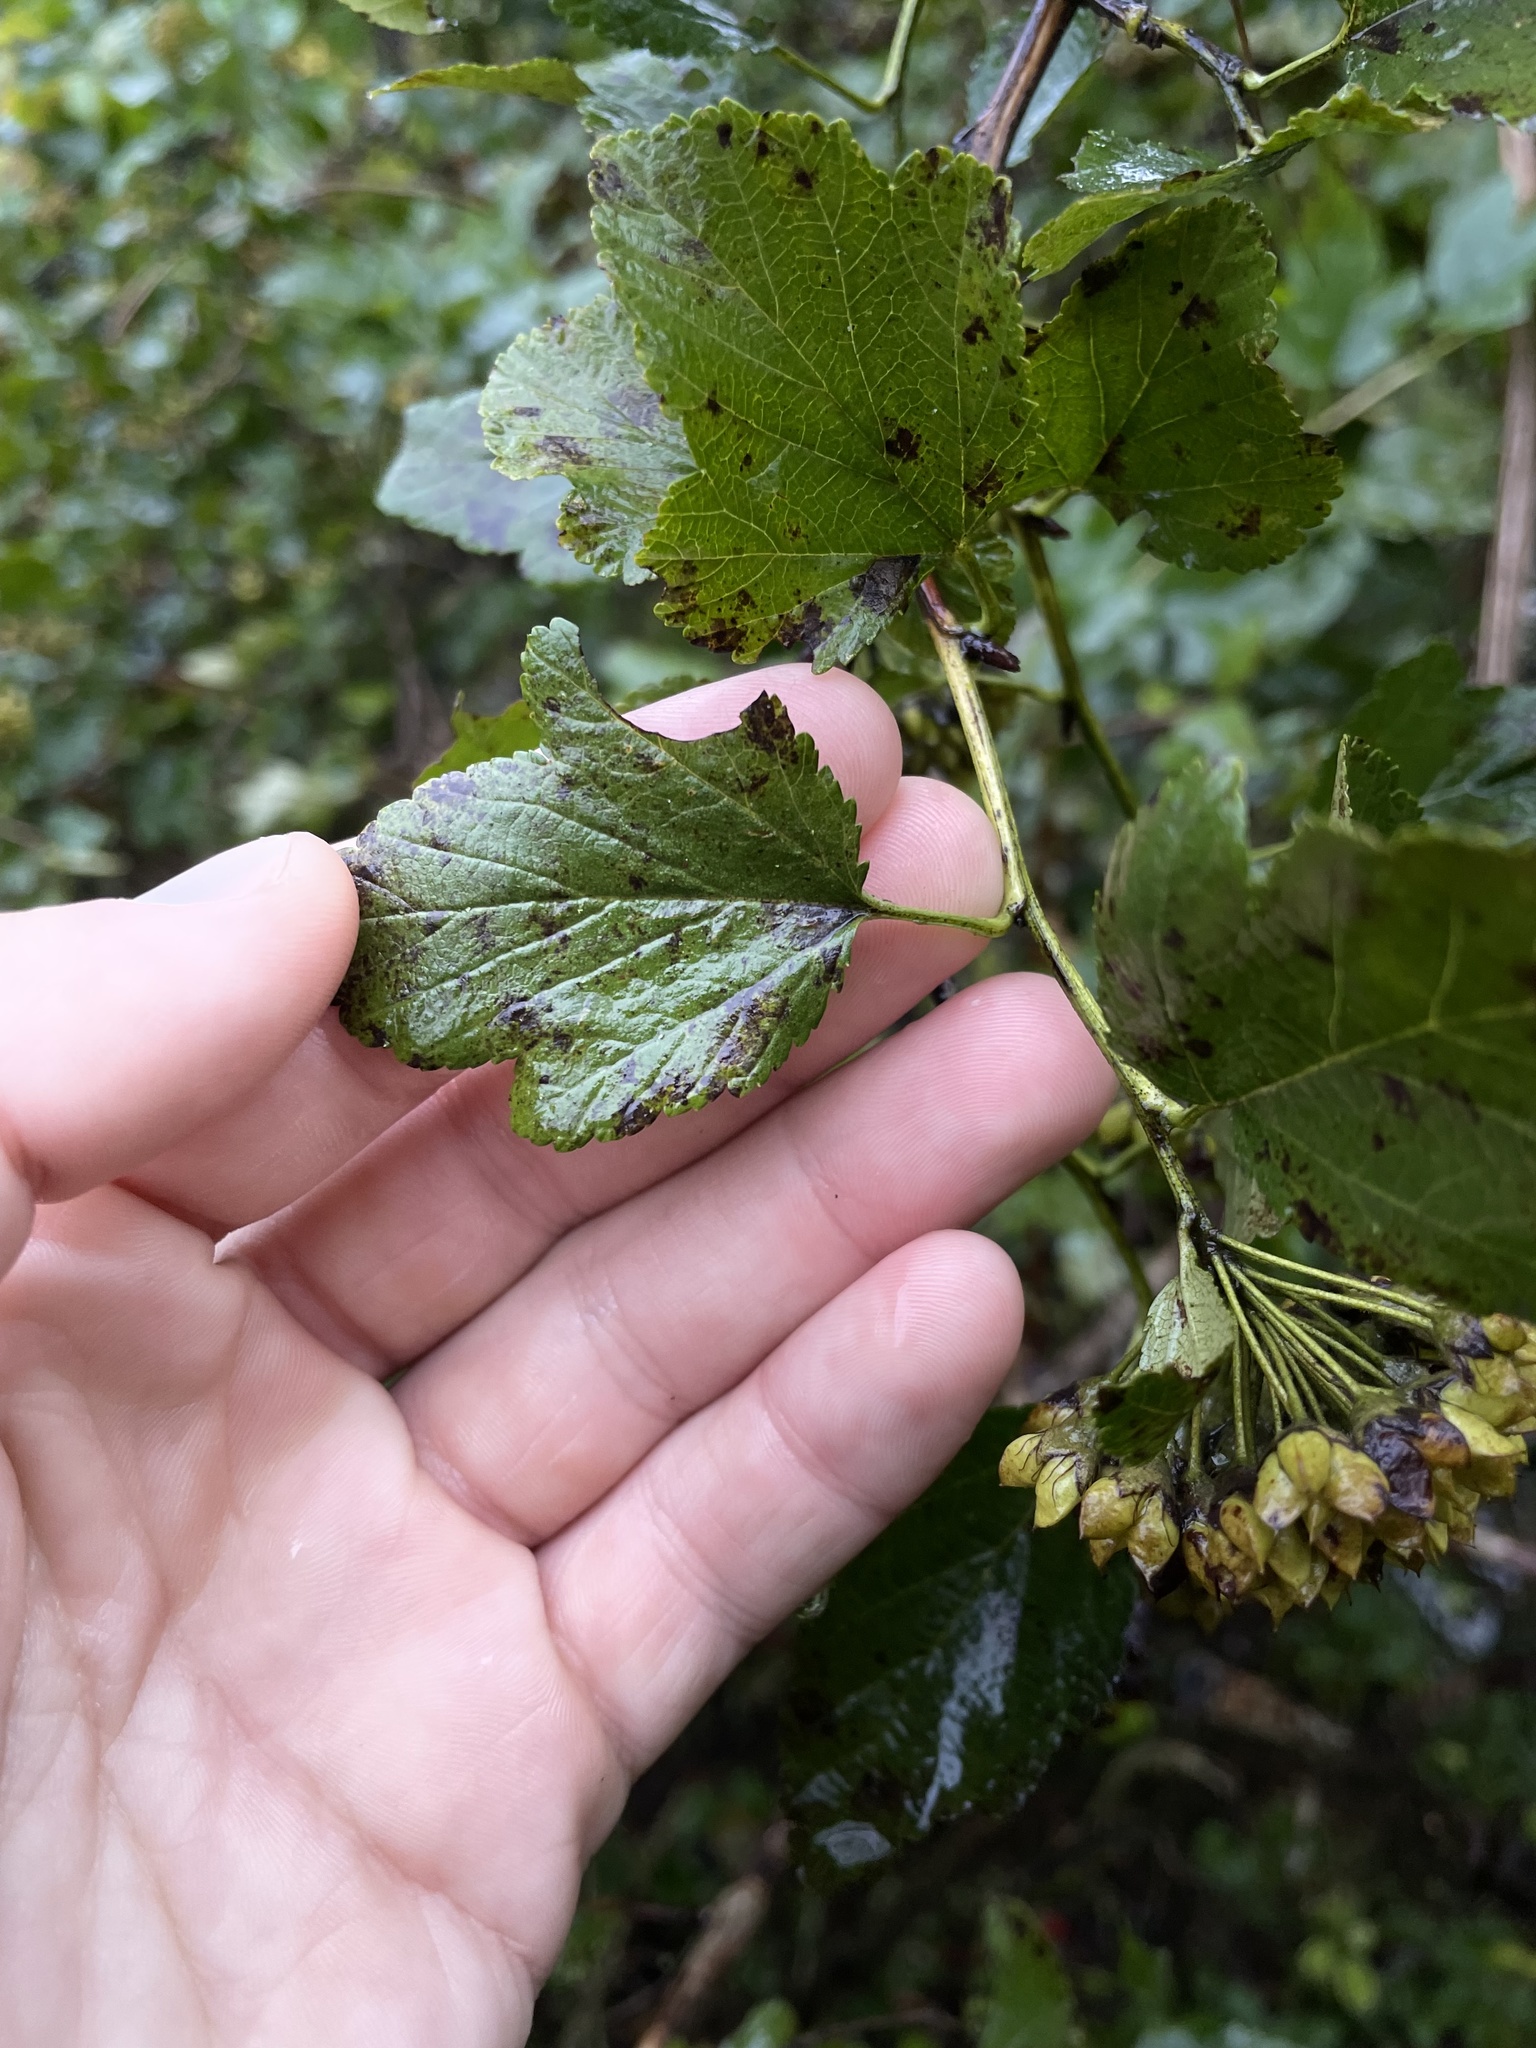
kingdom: Plantae
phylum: Tracheophyta
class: Magnoliopsida
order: Rosales
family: Rosaceae
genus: Physocarpus
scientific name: Physocarpus opulifolius
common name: Ninebark
